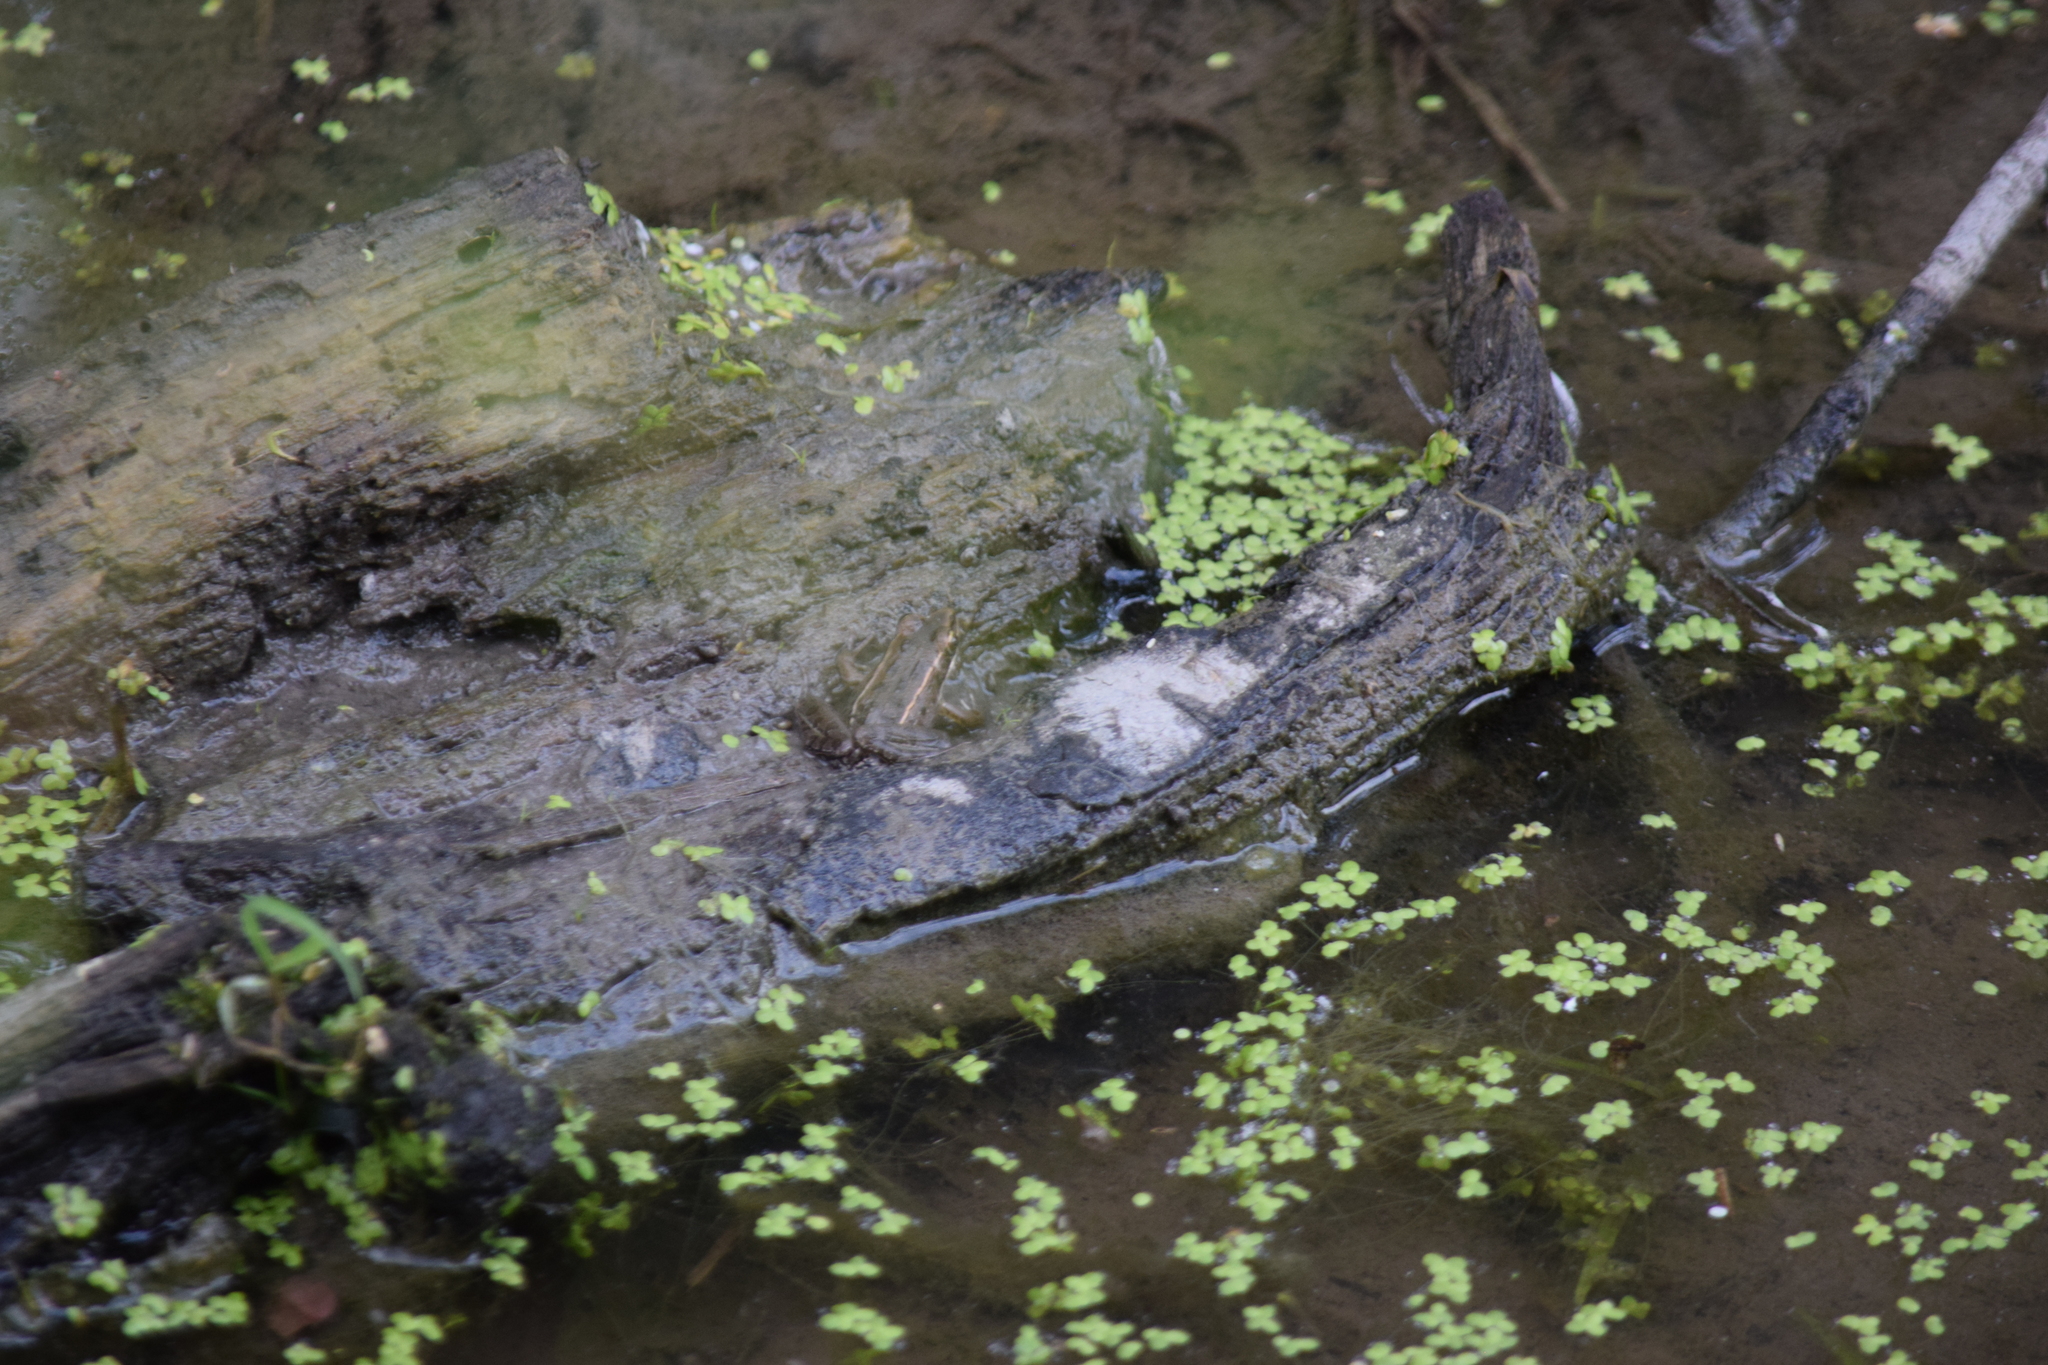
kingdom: Animalia
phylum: Chordata
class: Amphibia
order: Anura
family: Ranidae
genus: Lithobates
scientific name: Lithobates sphenocephalus
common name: Southern leopard frog
